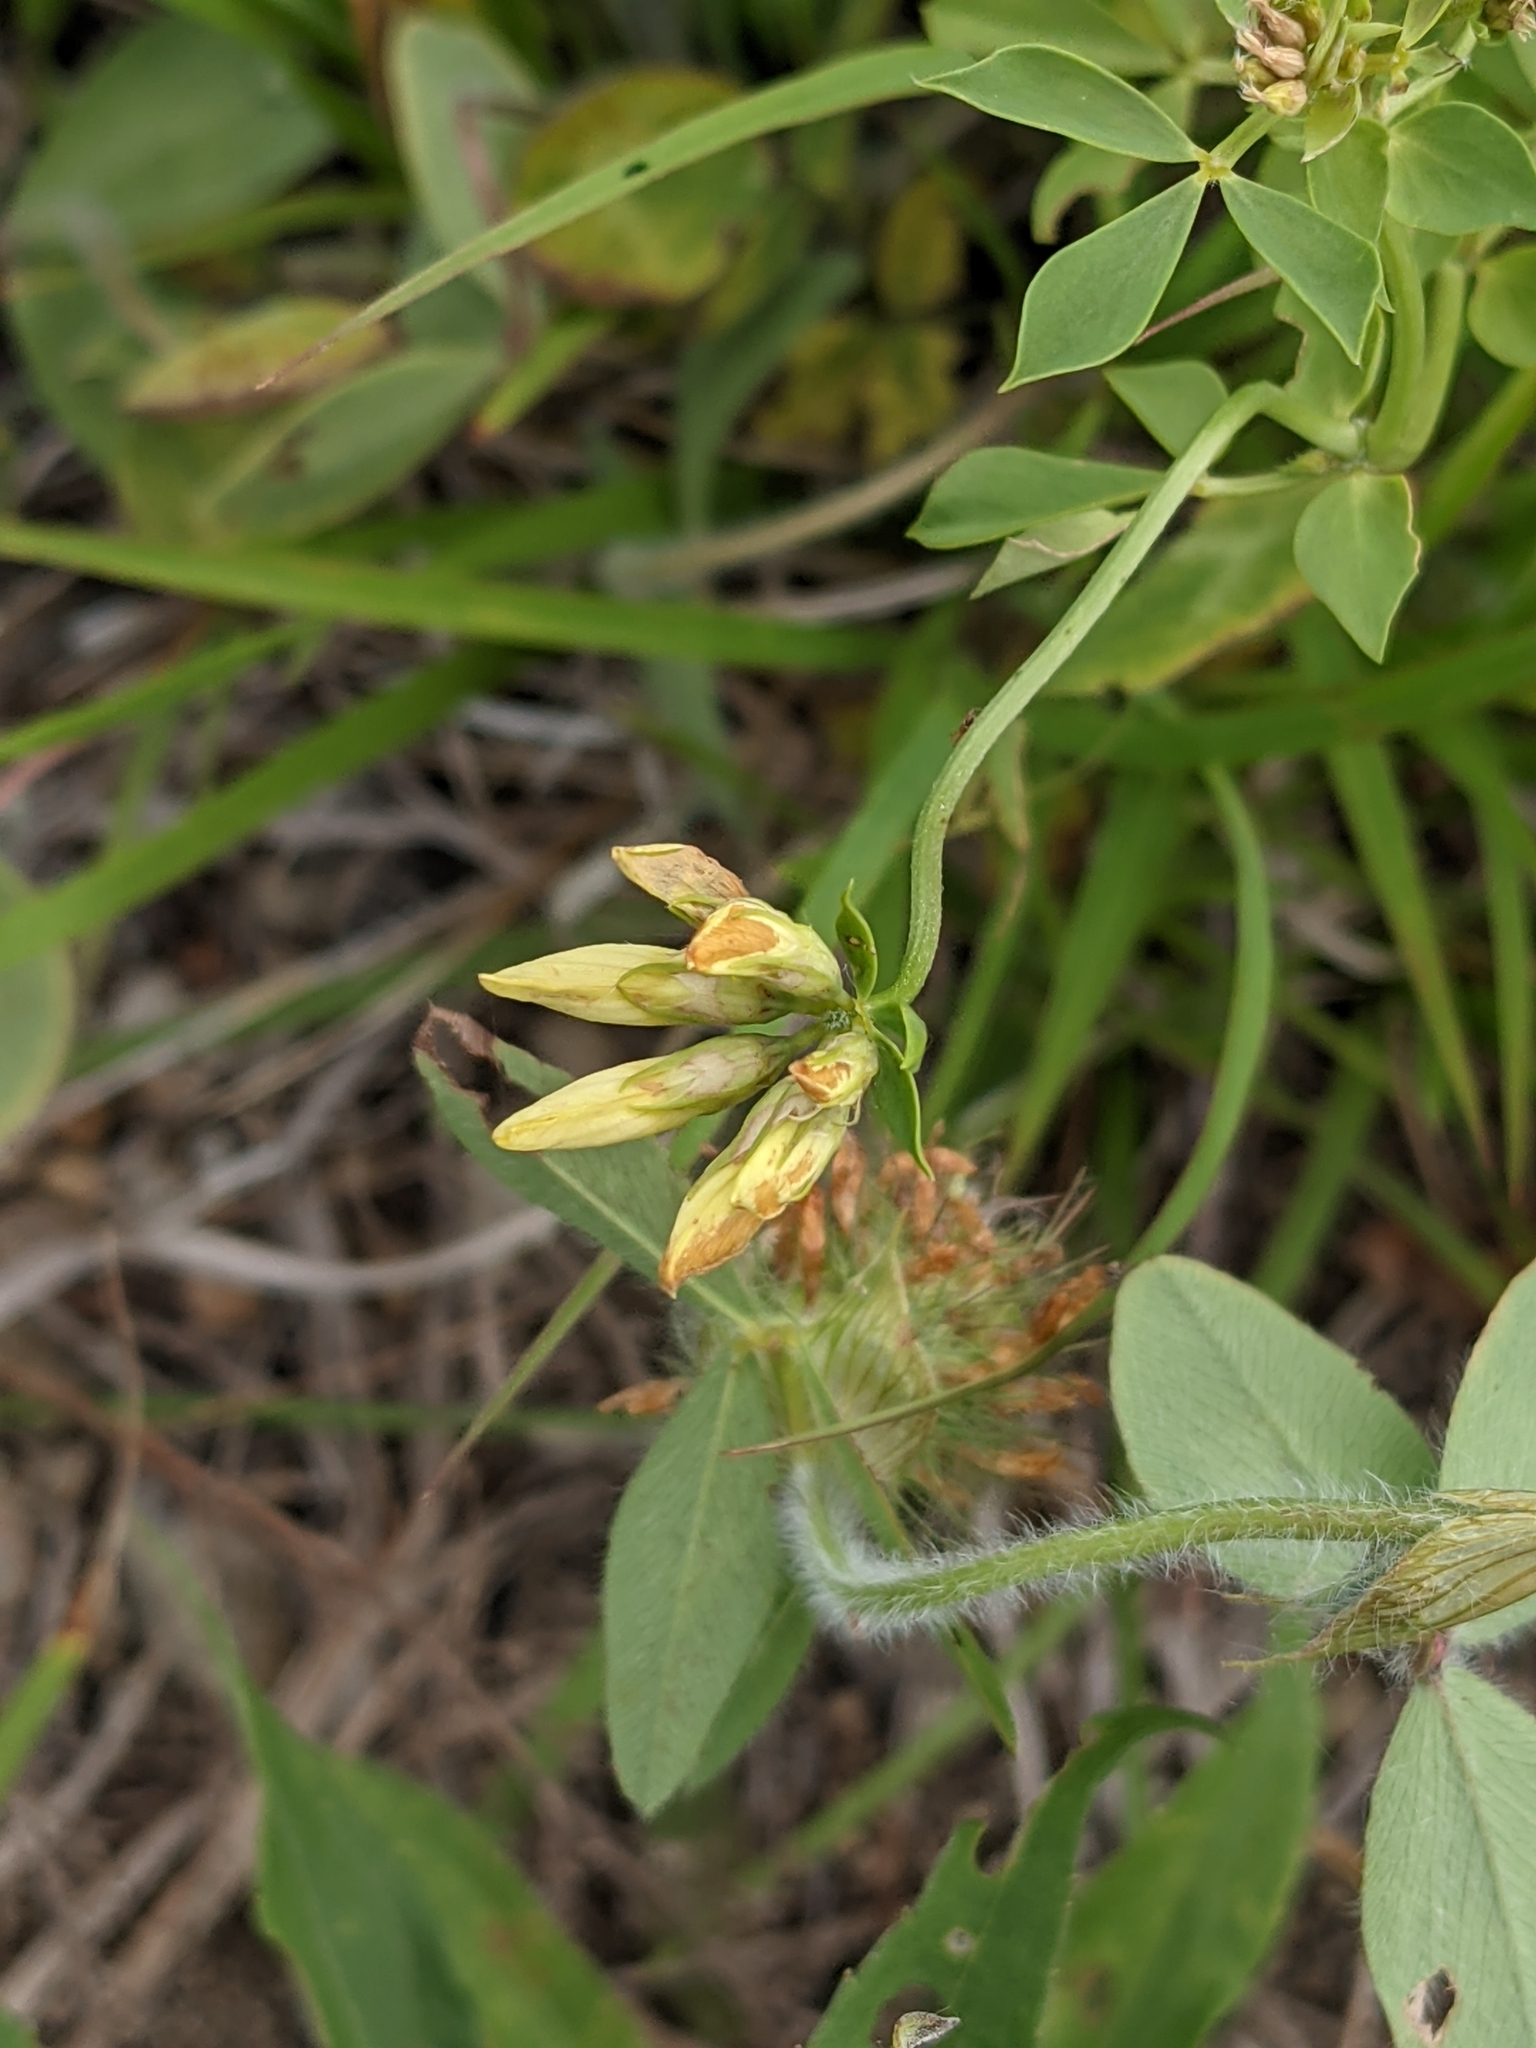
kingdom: Plantae
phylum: Tracheophyta
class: Magnoliopsida
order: Fabales
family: Fabaceae
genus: Lotus
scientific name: Lotus corniculatus
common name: Common bird's-foot-trefoil
